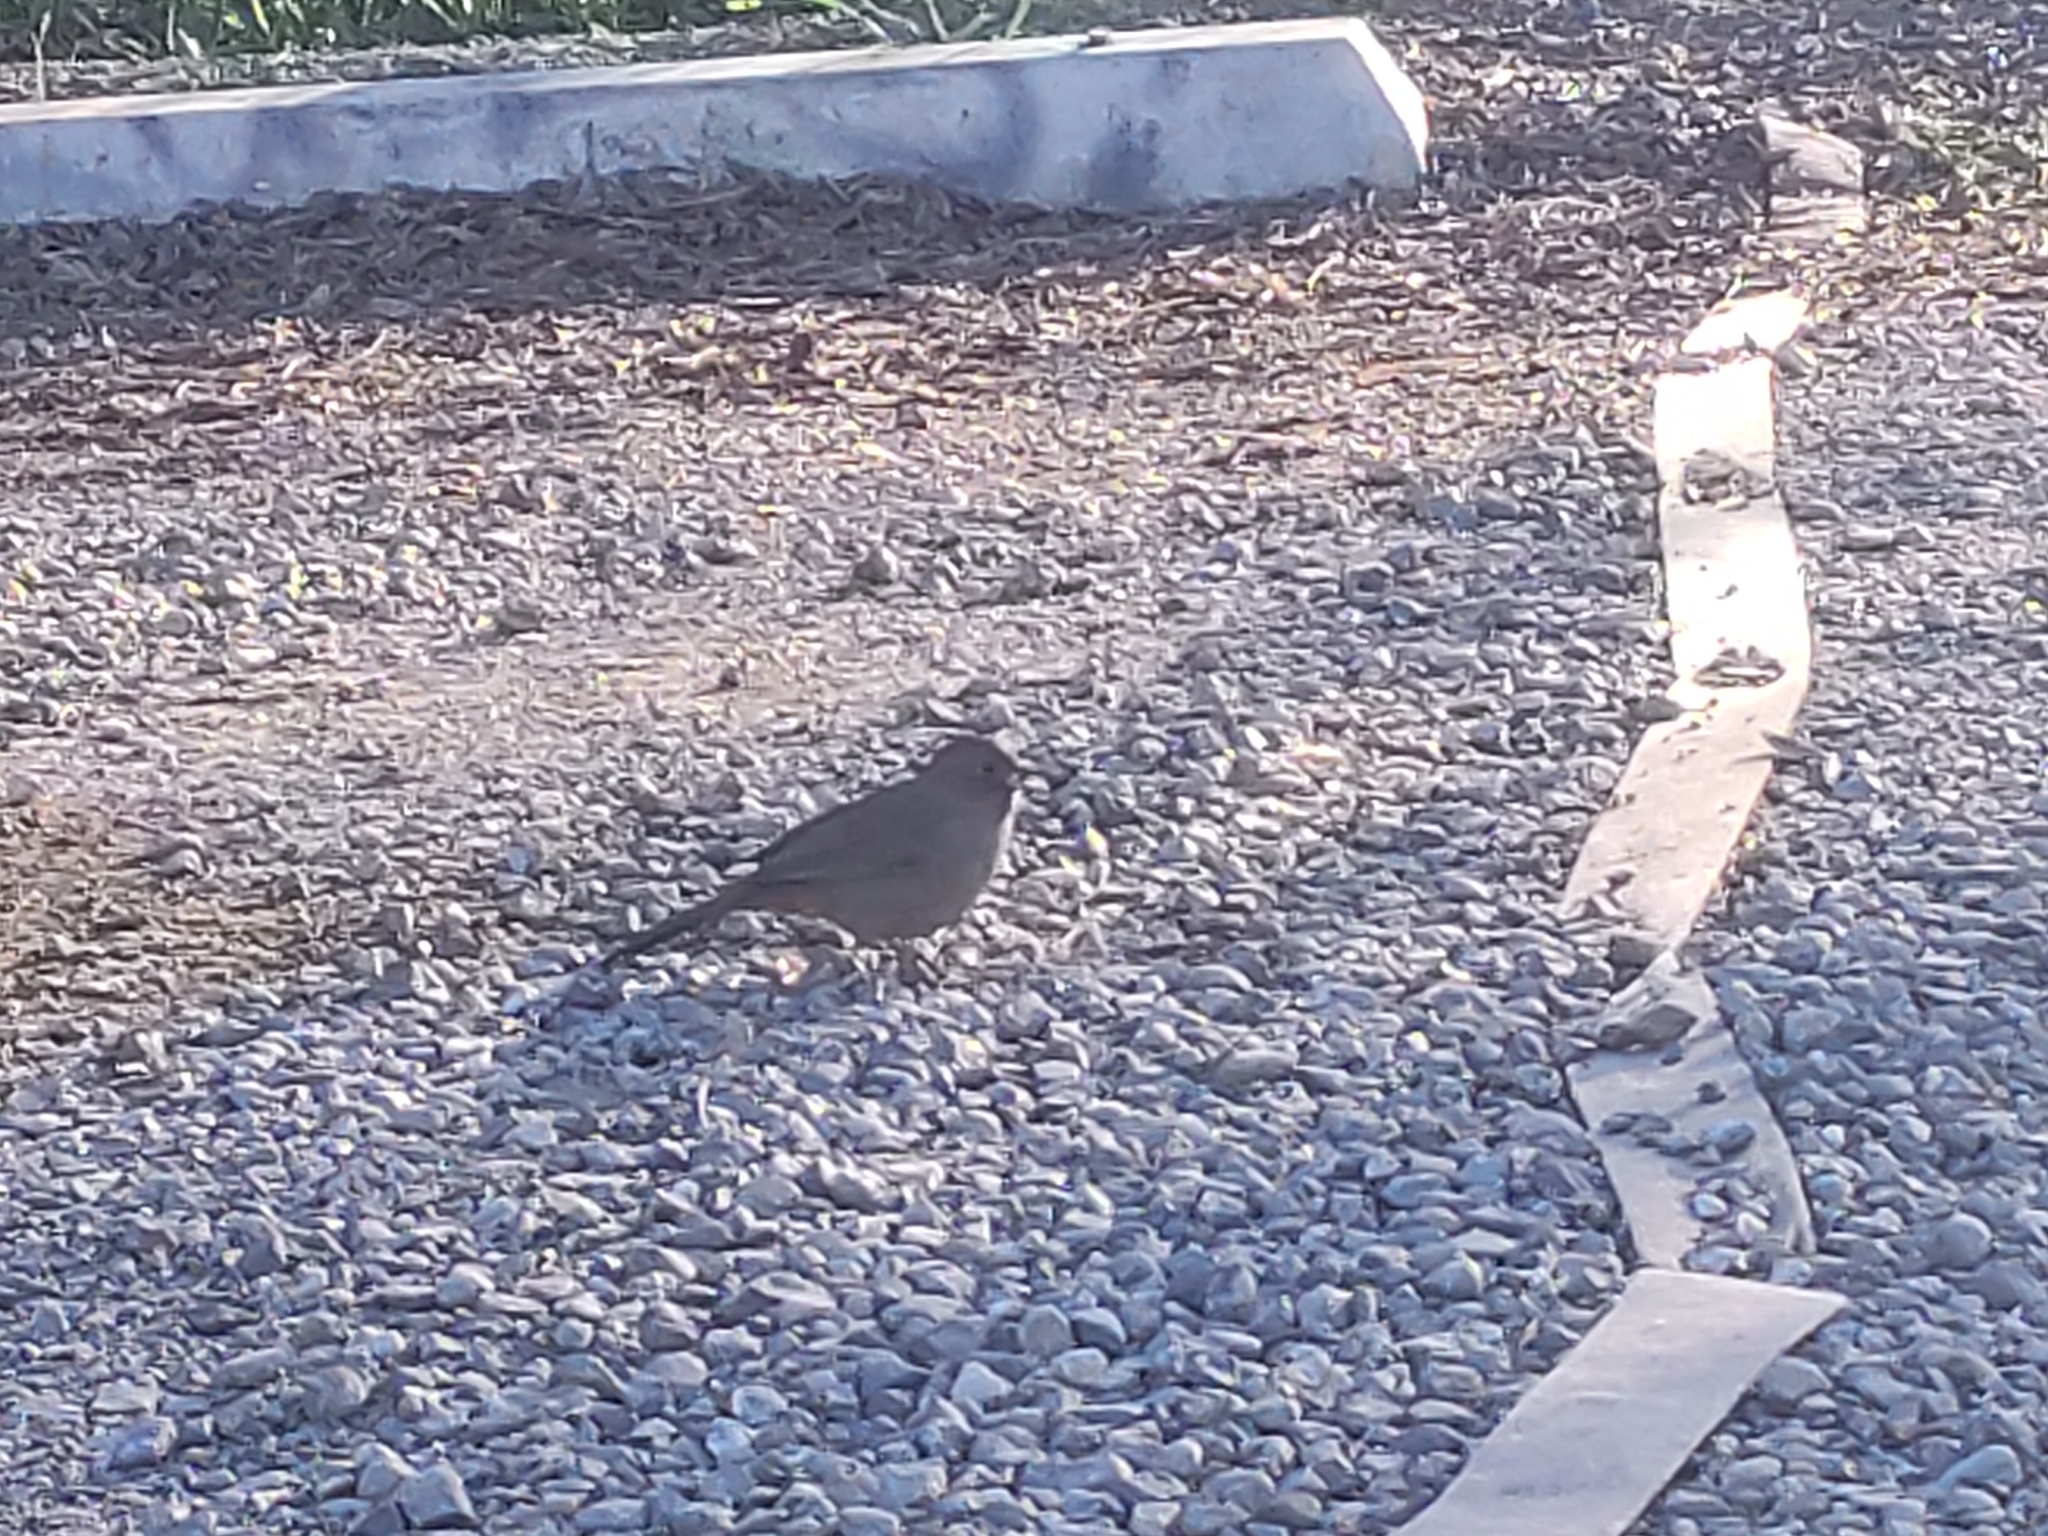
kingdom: Animalia
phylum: Chordata
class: Aves
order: Passeriformes
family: Passerellidae
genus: Melozone
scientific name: Melozone crissalis
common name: California towhee
